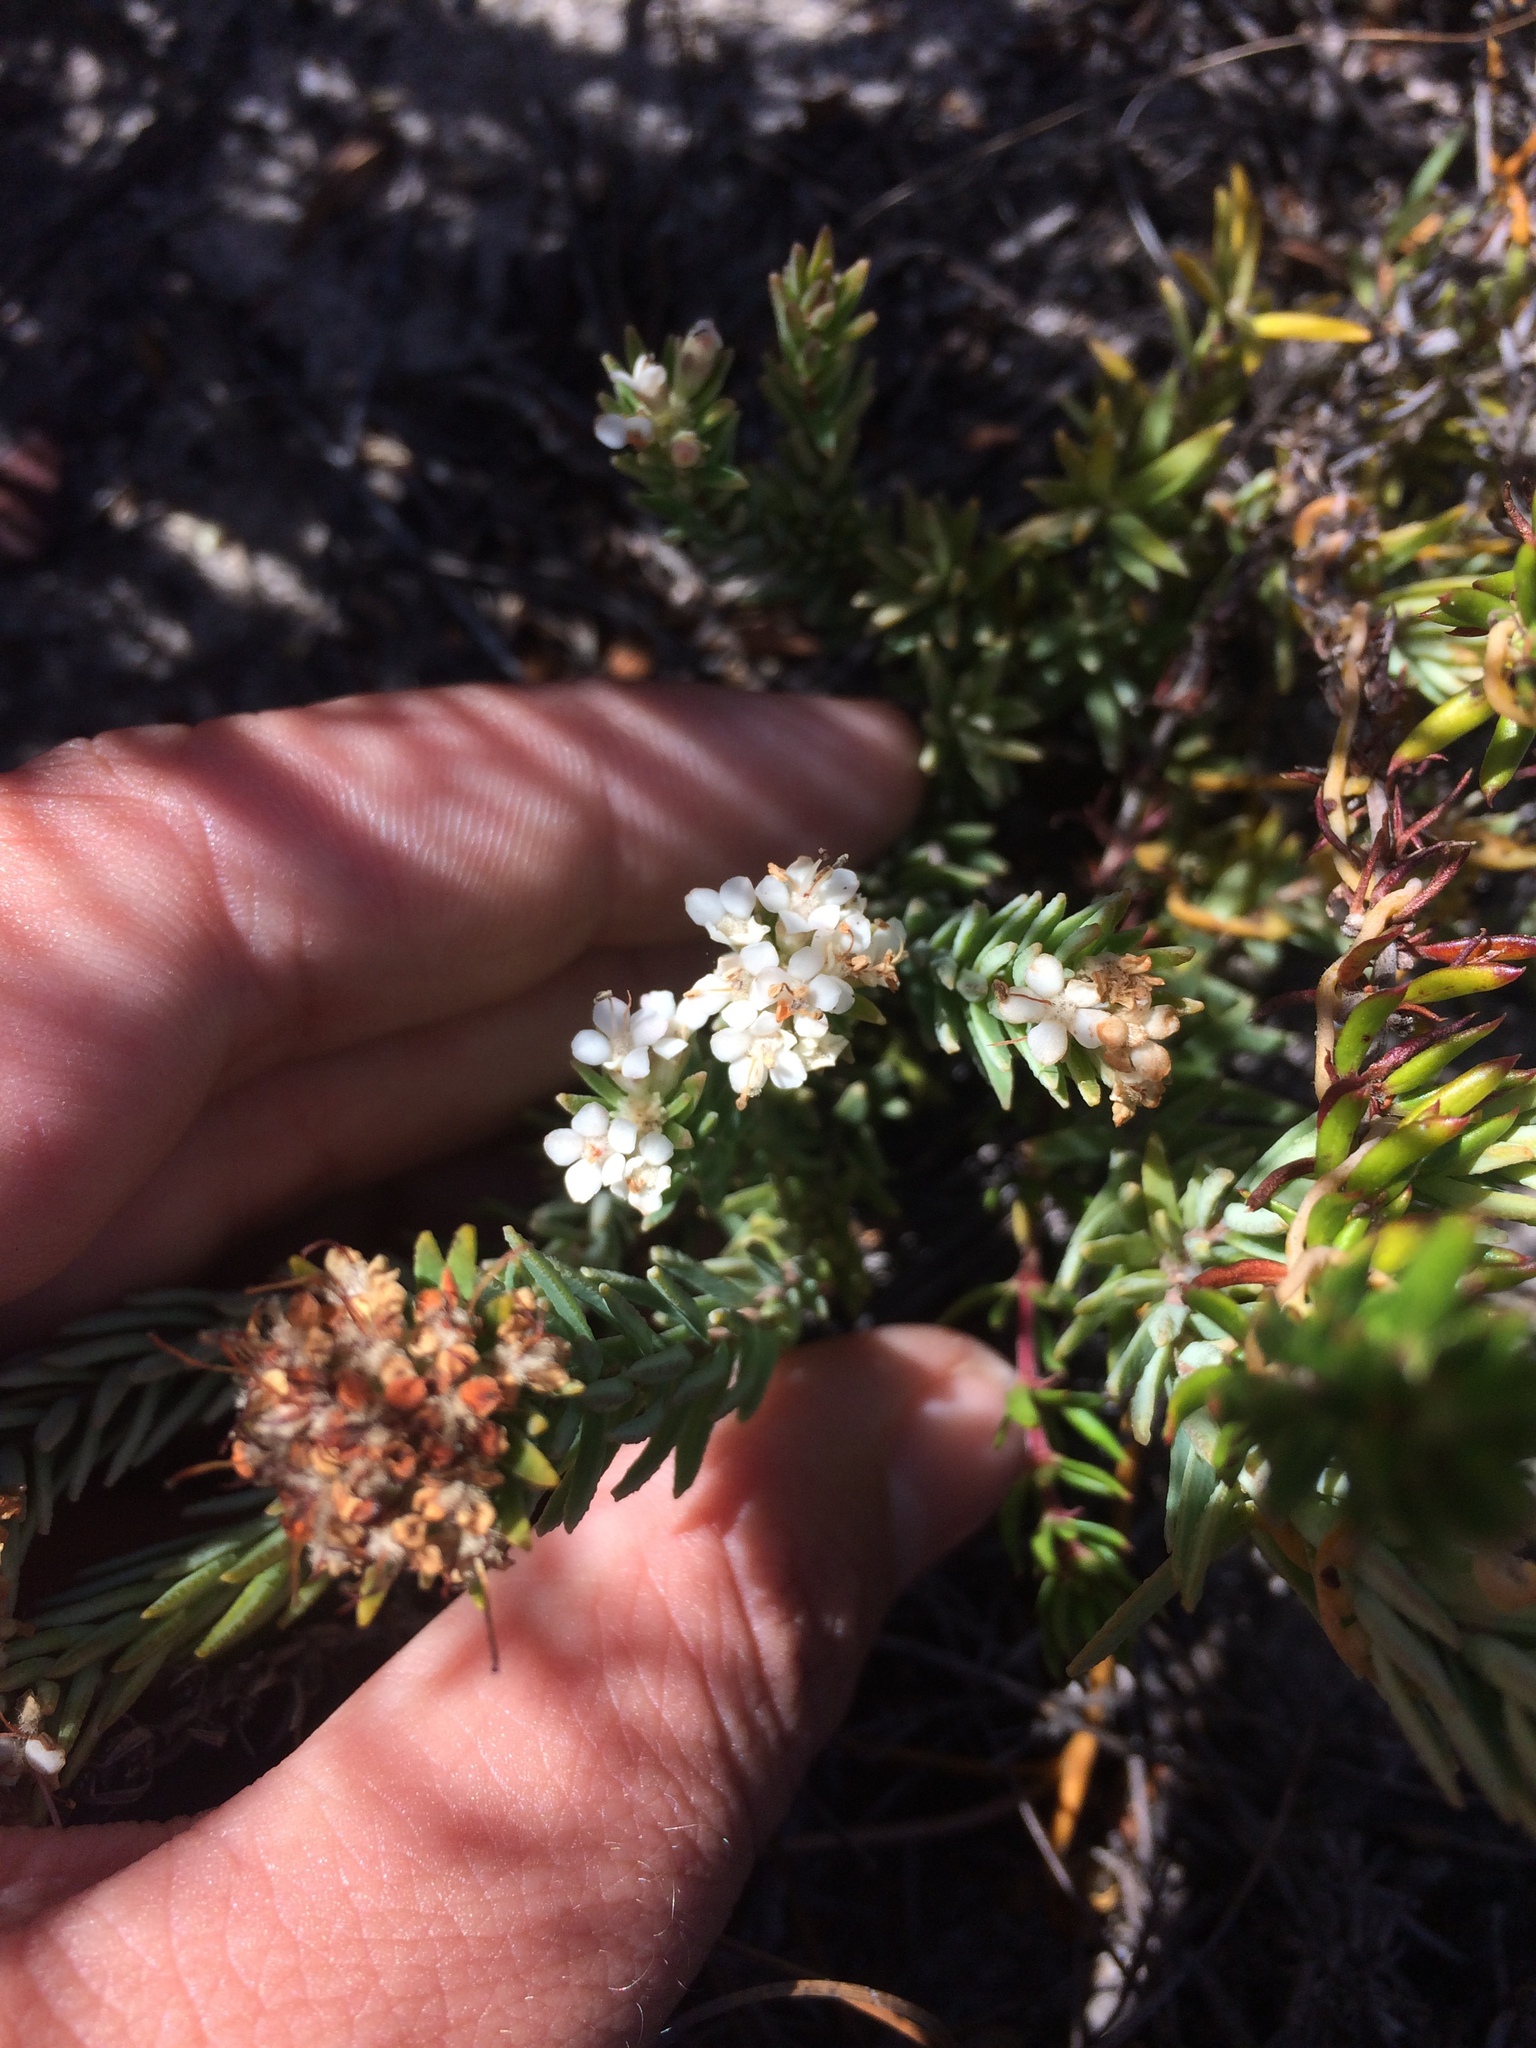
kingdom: Plantae
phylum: Tracheophyta
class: Magnoliopsida
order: Sapindales
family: Rutaceae
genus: Macrostylis
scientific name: Macrostylis villosa
